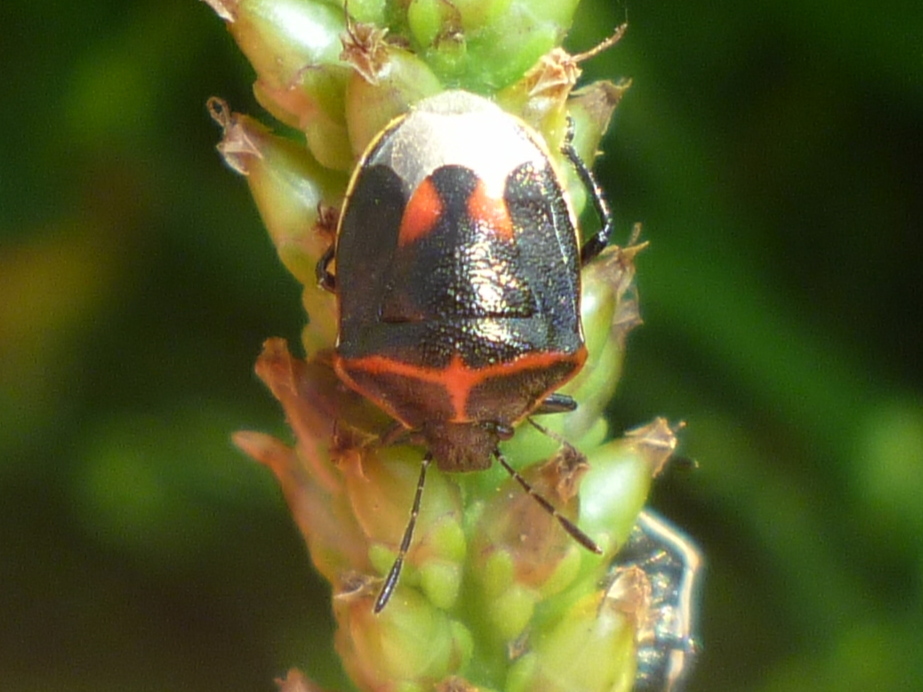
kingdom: Animalia
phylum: Arthropoda
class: Insecta
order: Hemiptera
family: Pentatomidae
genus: Cosmopepla
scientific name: Cosmopepla lintneriana
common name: Twice-stabbed stink bug
